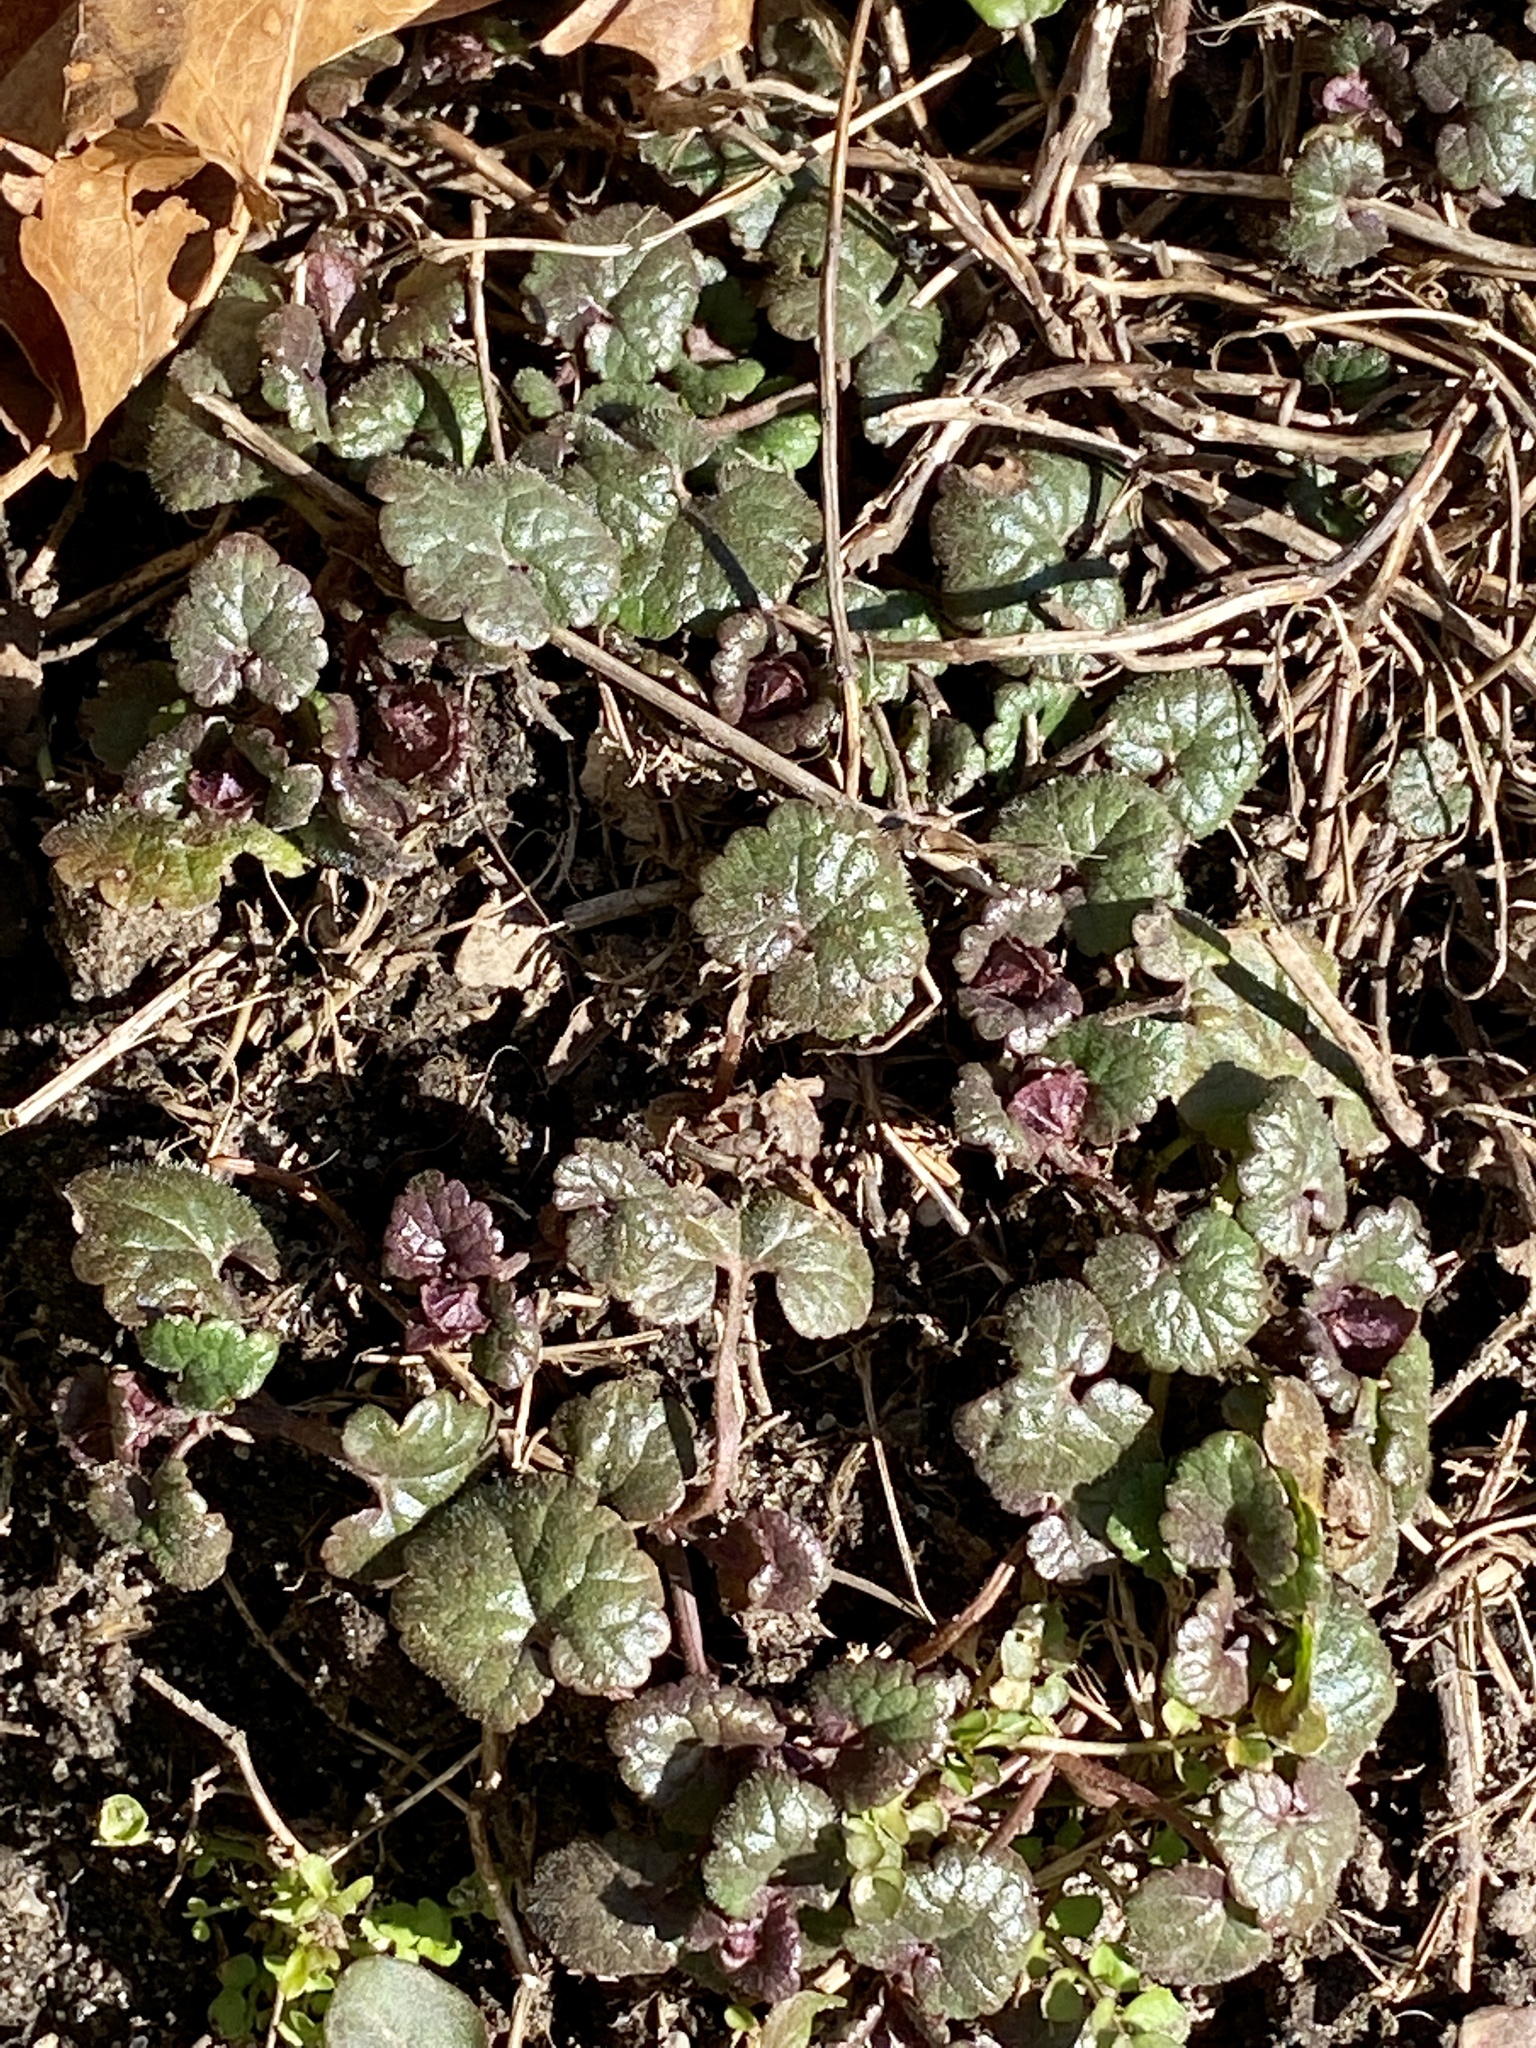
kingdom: Plantae
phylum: Tracheophyta
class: Magnoliopsida
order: Lamiales
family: Lamiaceae
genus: Glechoma
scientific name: Glechoma hederacea
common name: Ground ivy
